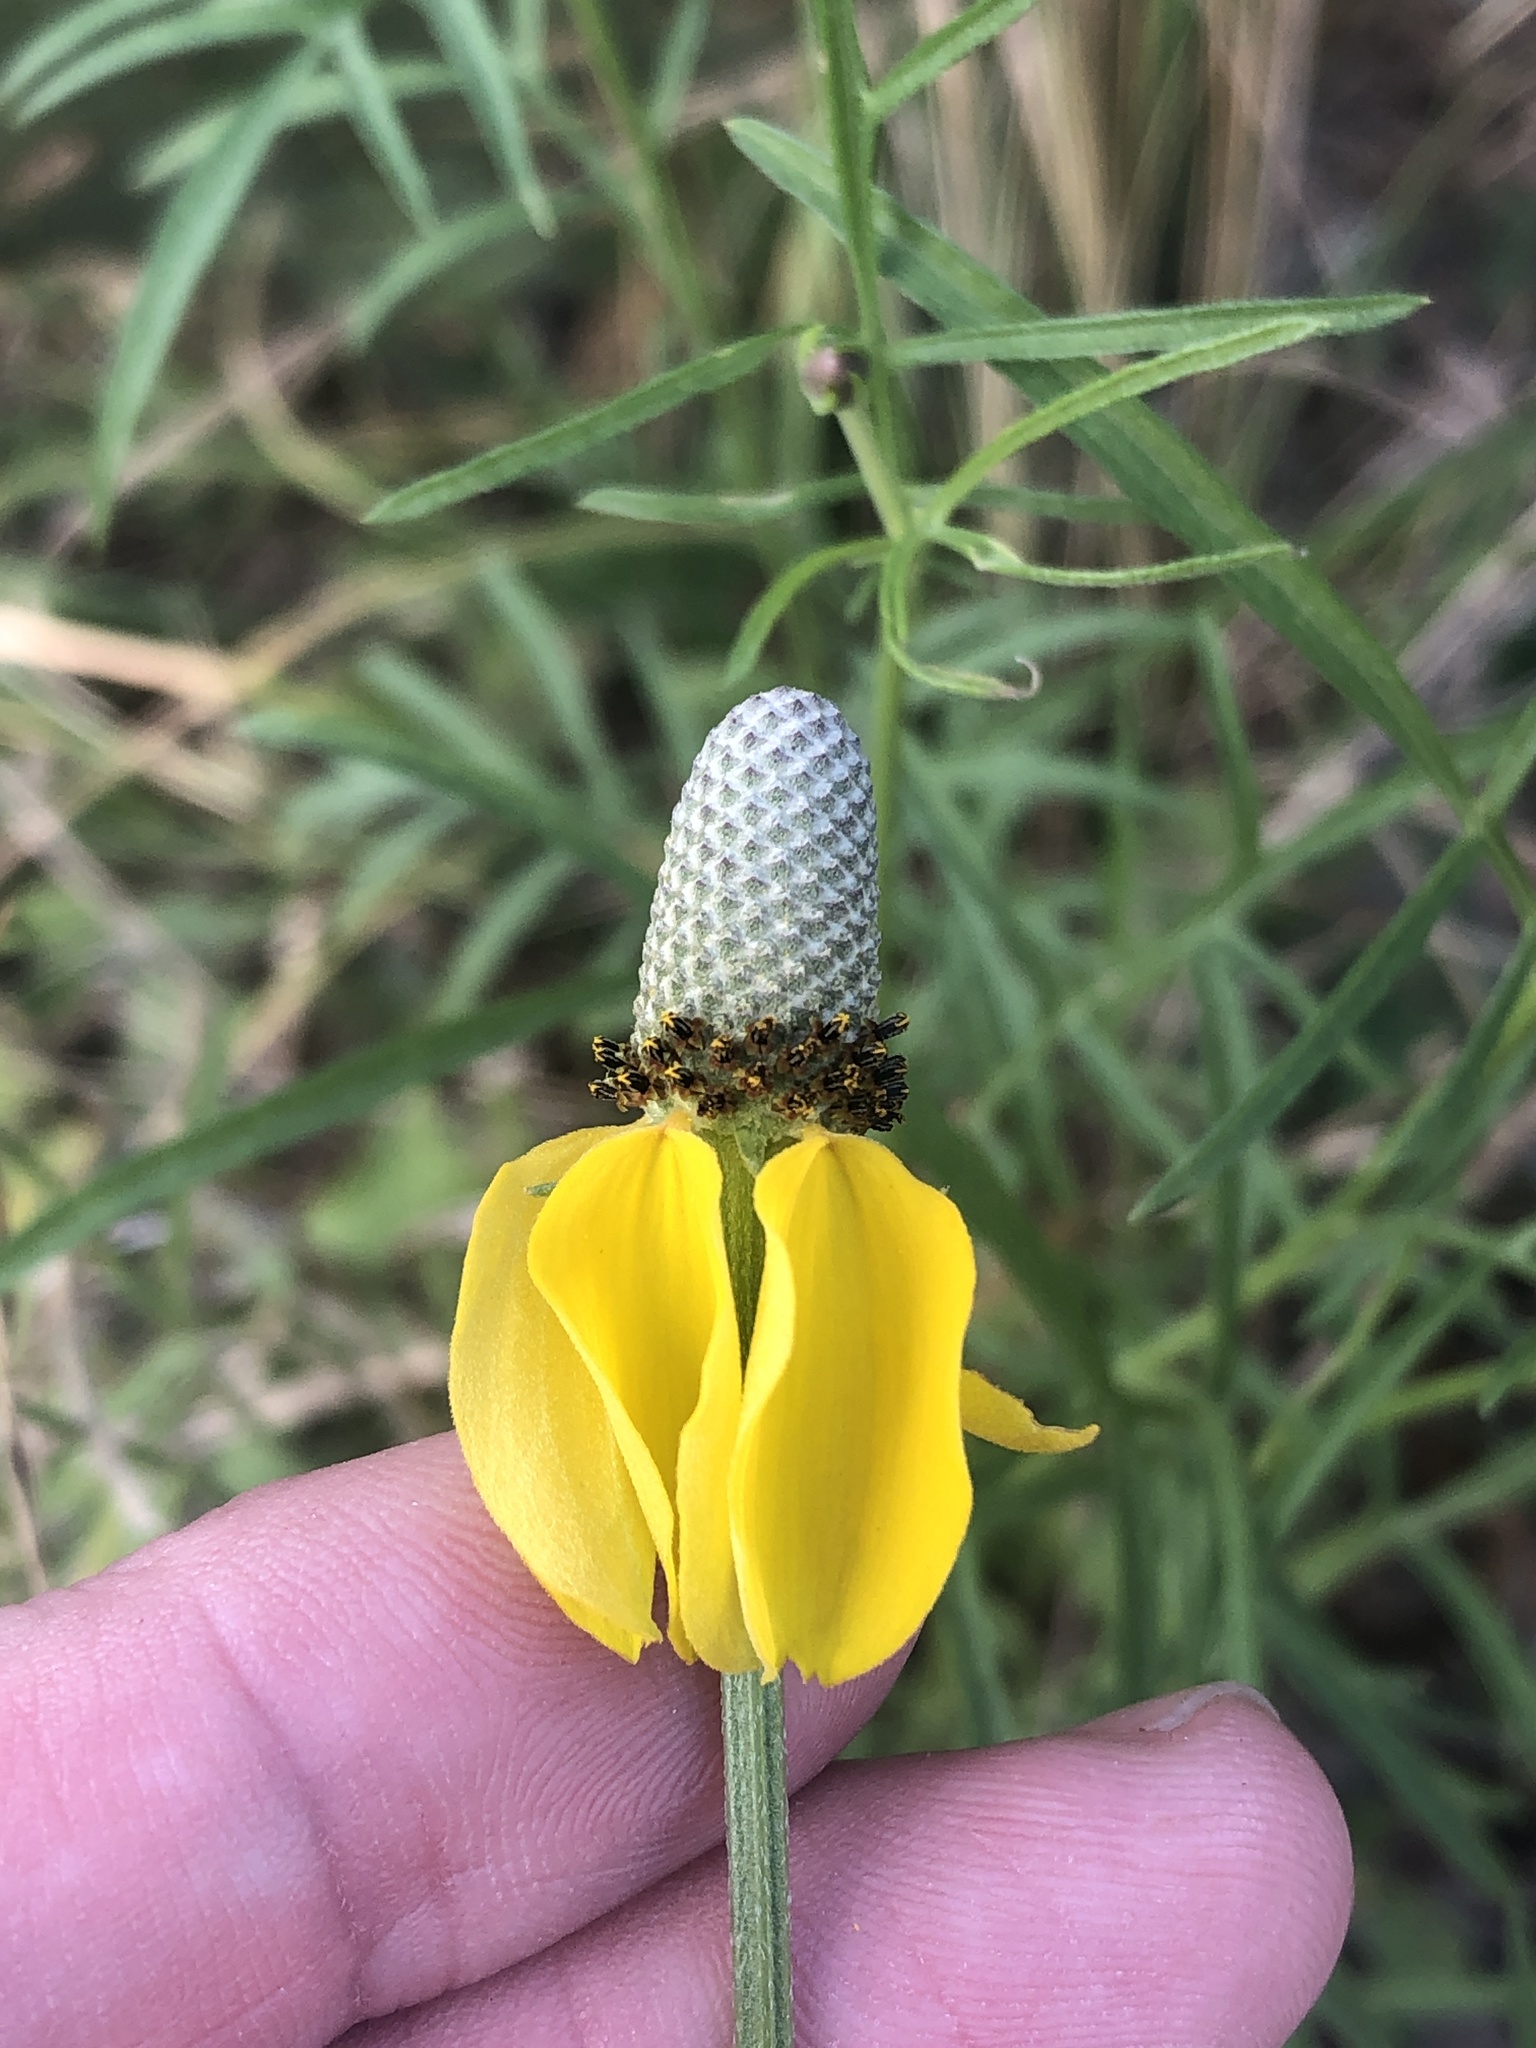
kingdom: Plantae
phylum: Tracheophyta
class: Magnoliopsida
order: Asterales
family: Asteraceae
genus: Ratibida
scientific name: Ratibida columnifera
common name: Prairie coneflower
